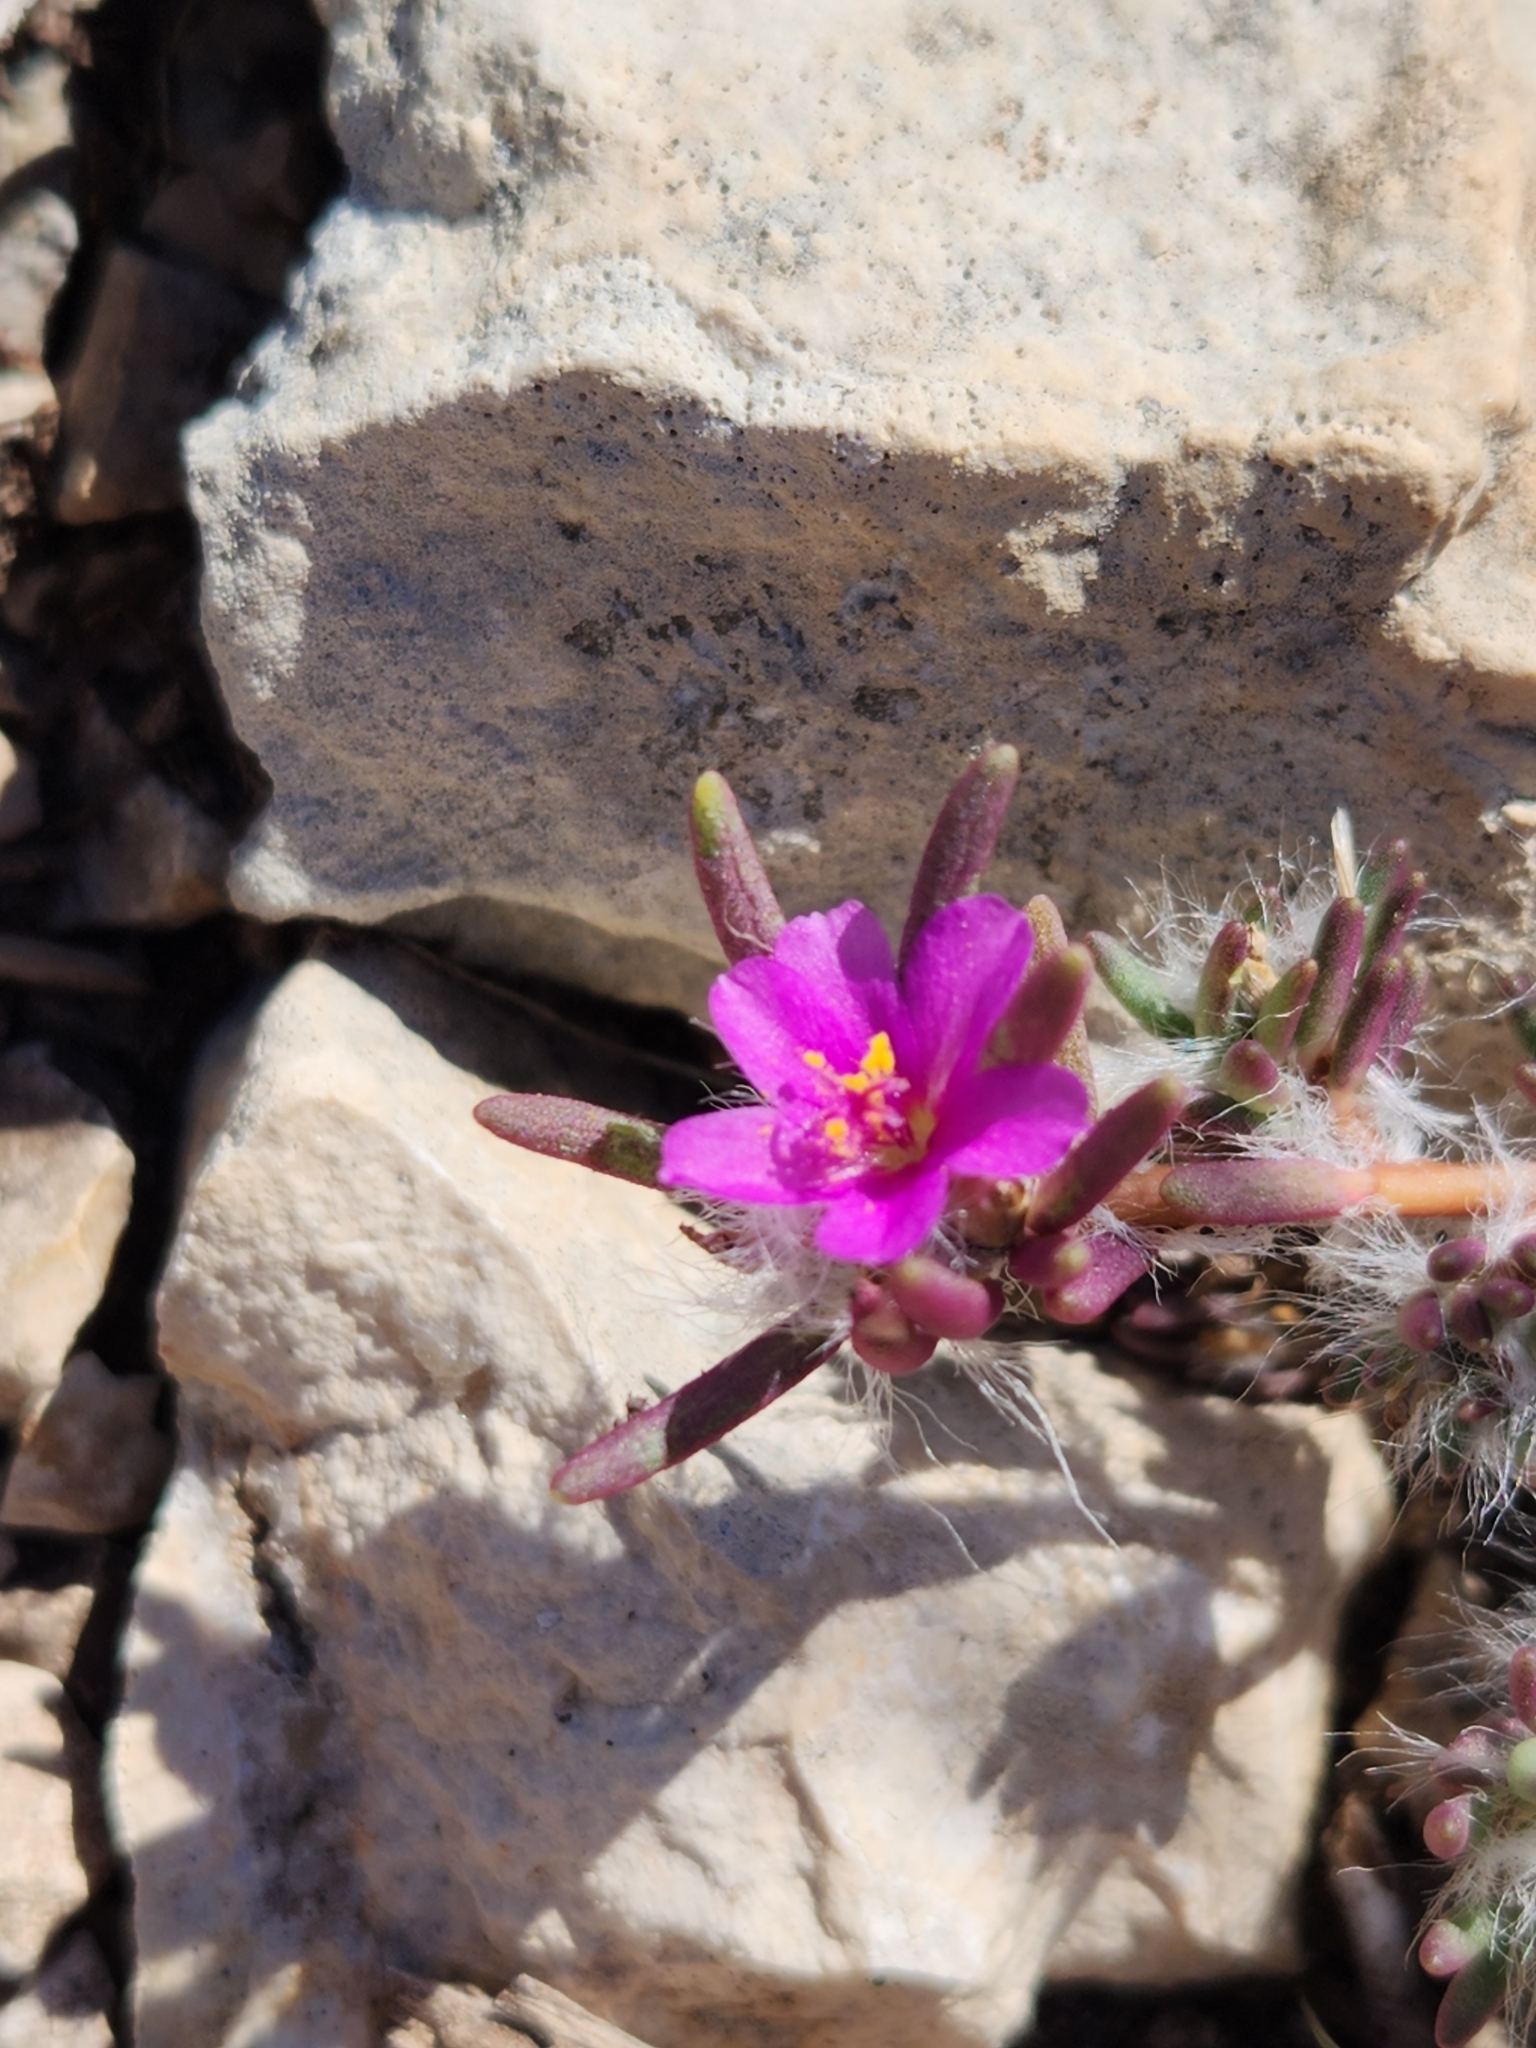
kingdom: Plantae
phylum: Tracheophyta
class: Magnoliopsida
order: Caryophyllales
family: Portulacaceae
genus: Portulaca
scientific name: Portulaca pilosa
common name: Kiss me quick
